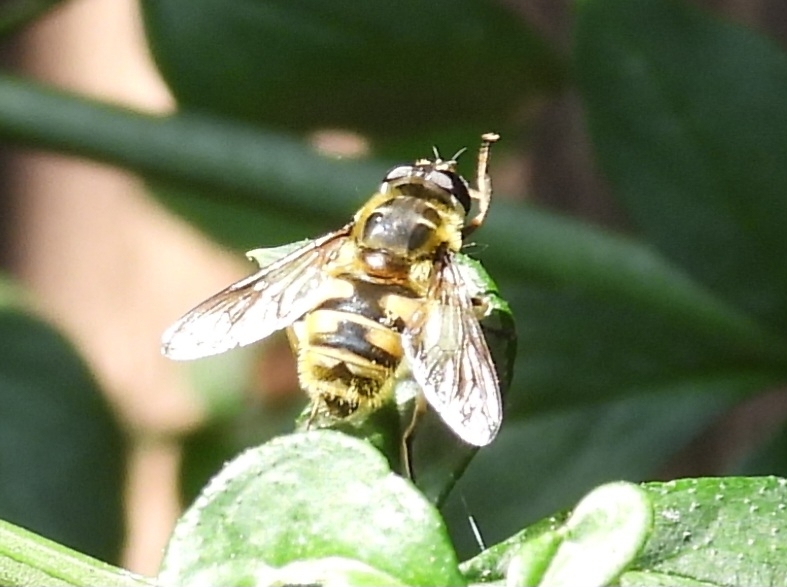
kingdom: Animalia
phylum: Arthropoda
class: Insecta
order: Diptera
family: Syrphidae
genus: Myathropa
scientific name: Myathropa florea
